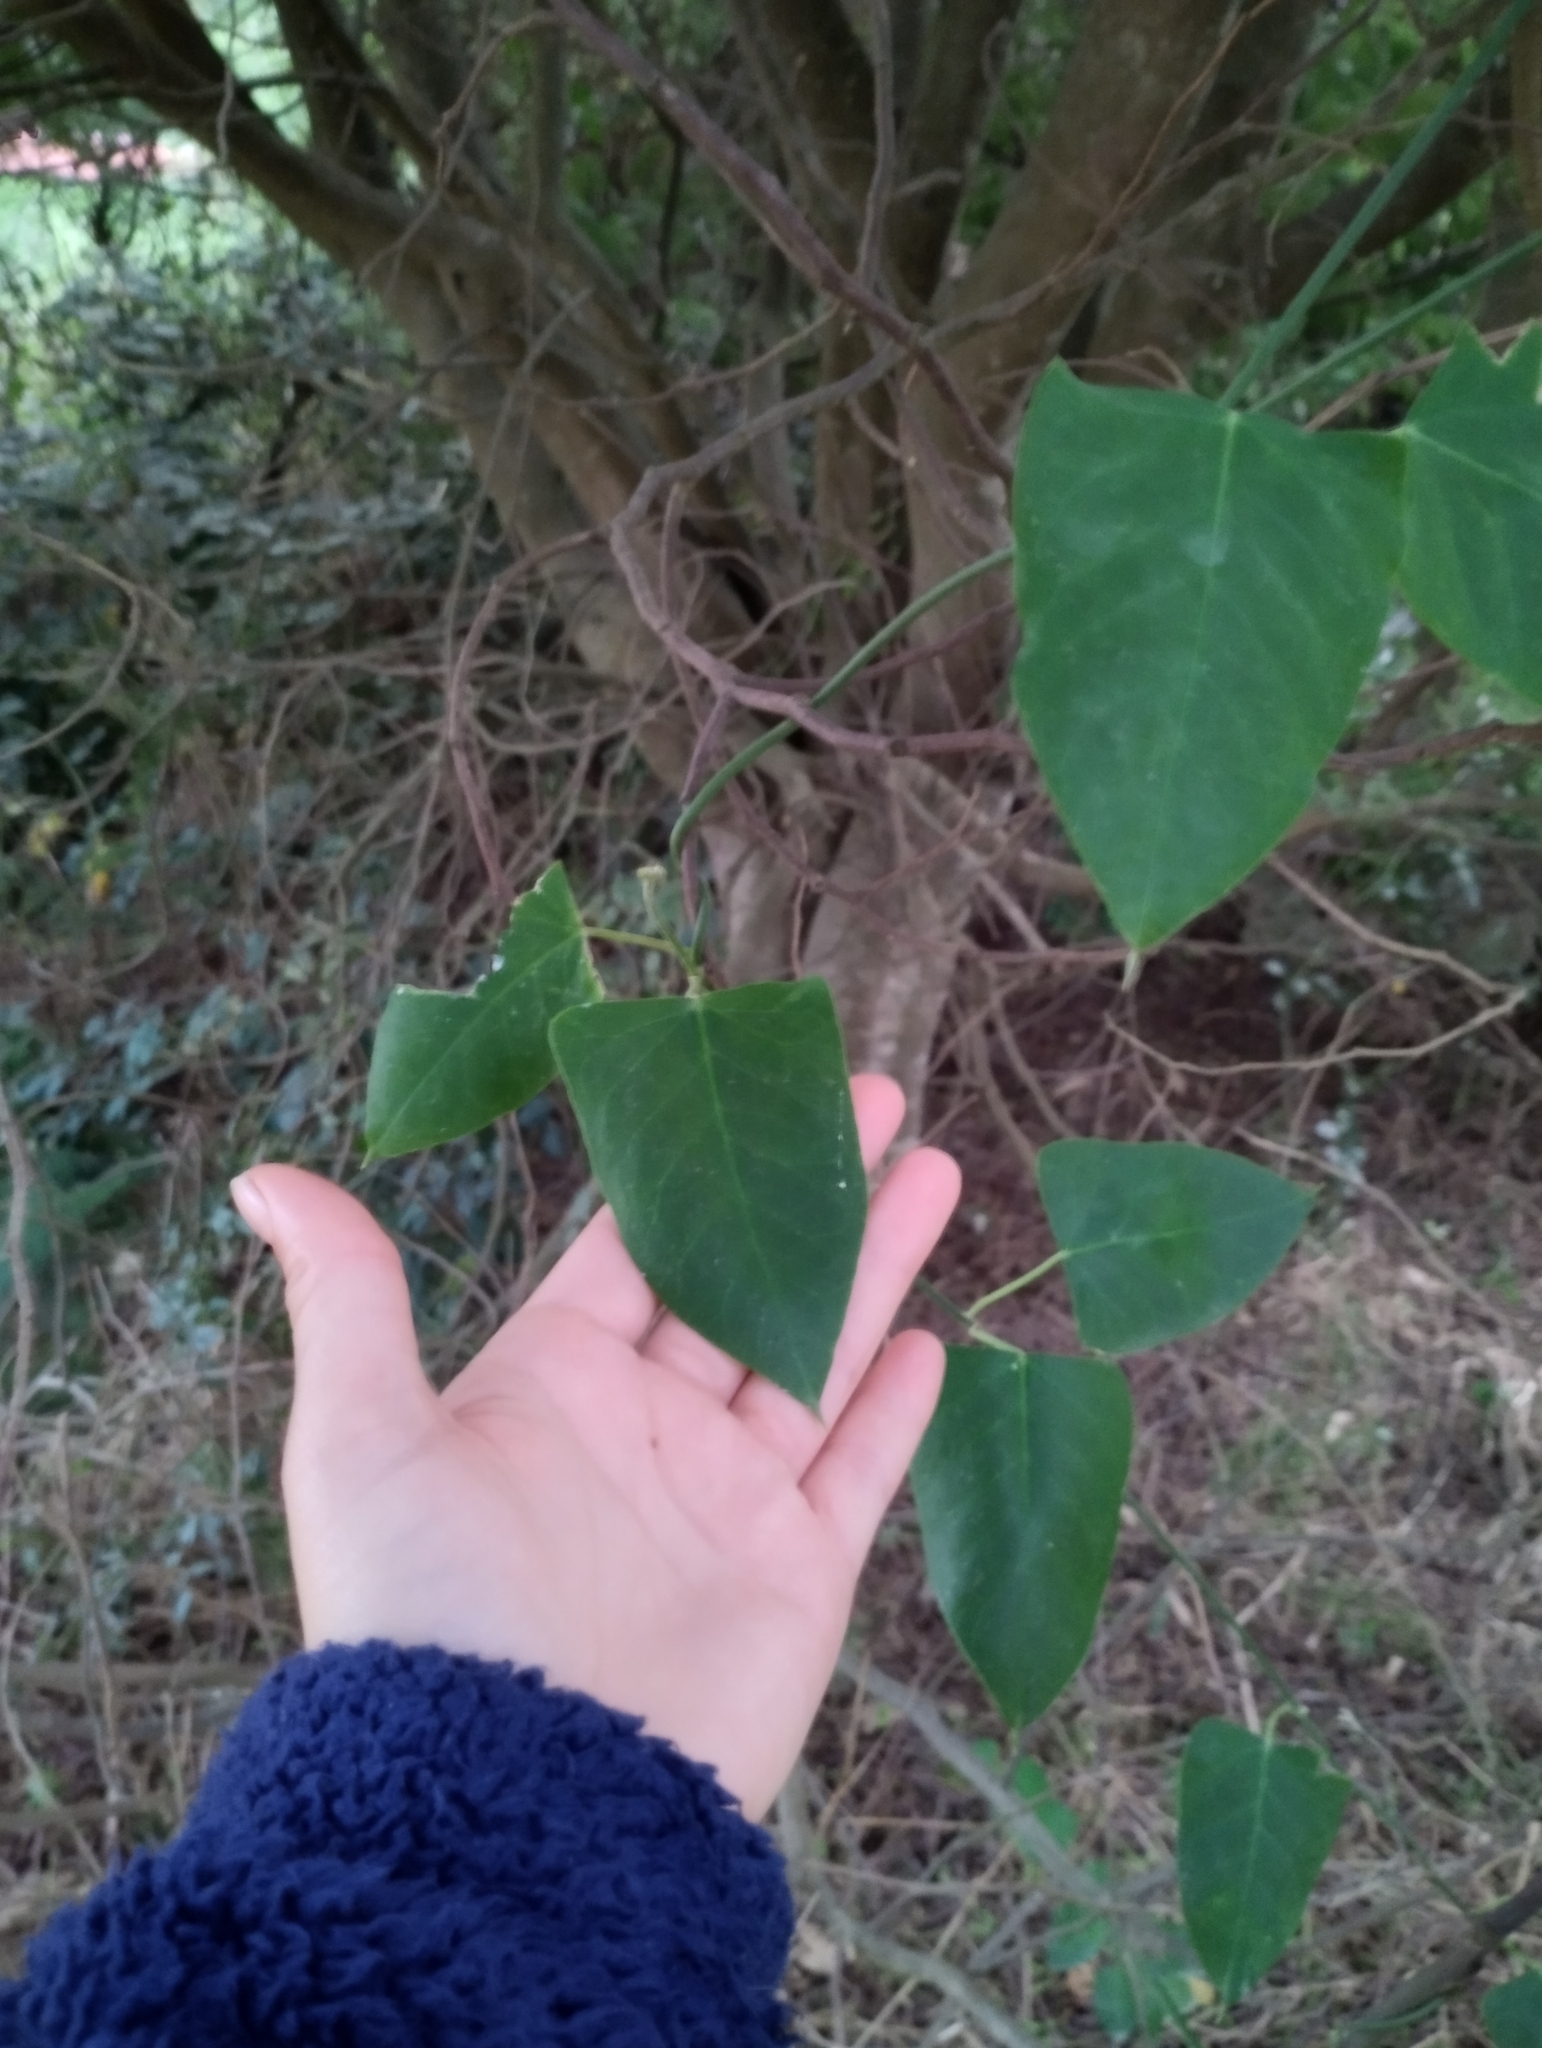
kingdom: Plantae
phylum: Tracheophyta
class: Magnoliopsida
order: Gentianales
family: Apocynaceae
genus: Araujia
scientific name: Araujia sericifera
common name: White bladderflower
